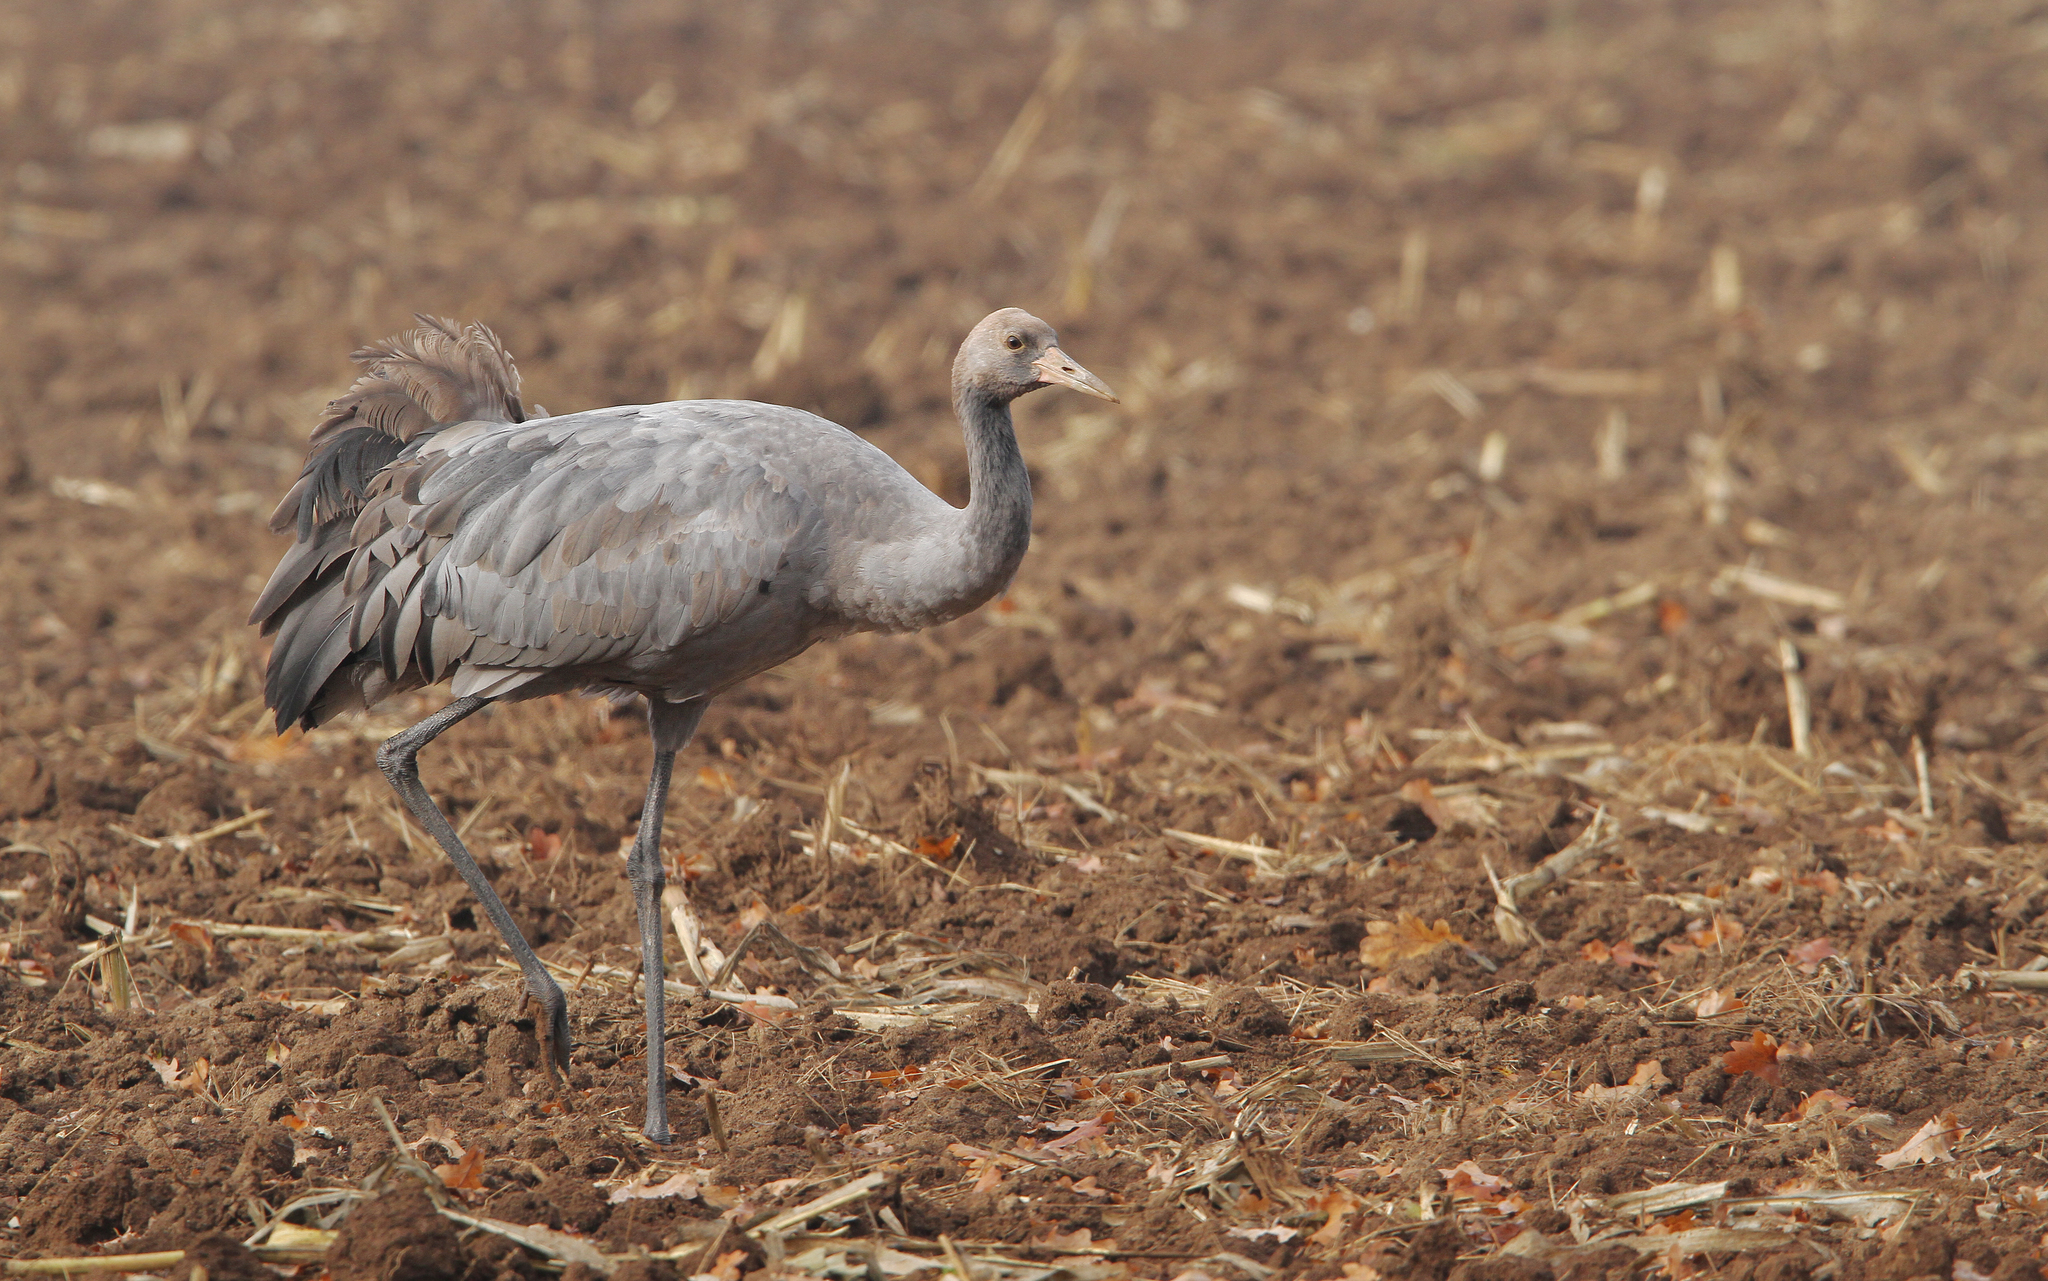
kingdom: Animalia
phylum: Chordata
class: Aves
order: Gruiformes
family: Gruidae
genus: Grus
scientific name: Grus grus
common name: Common crane
